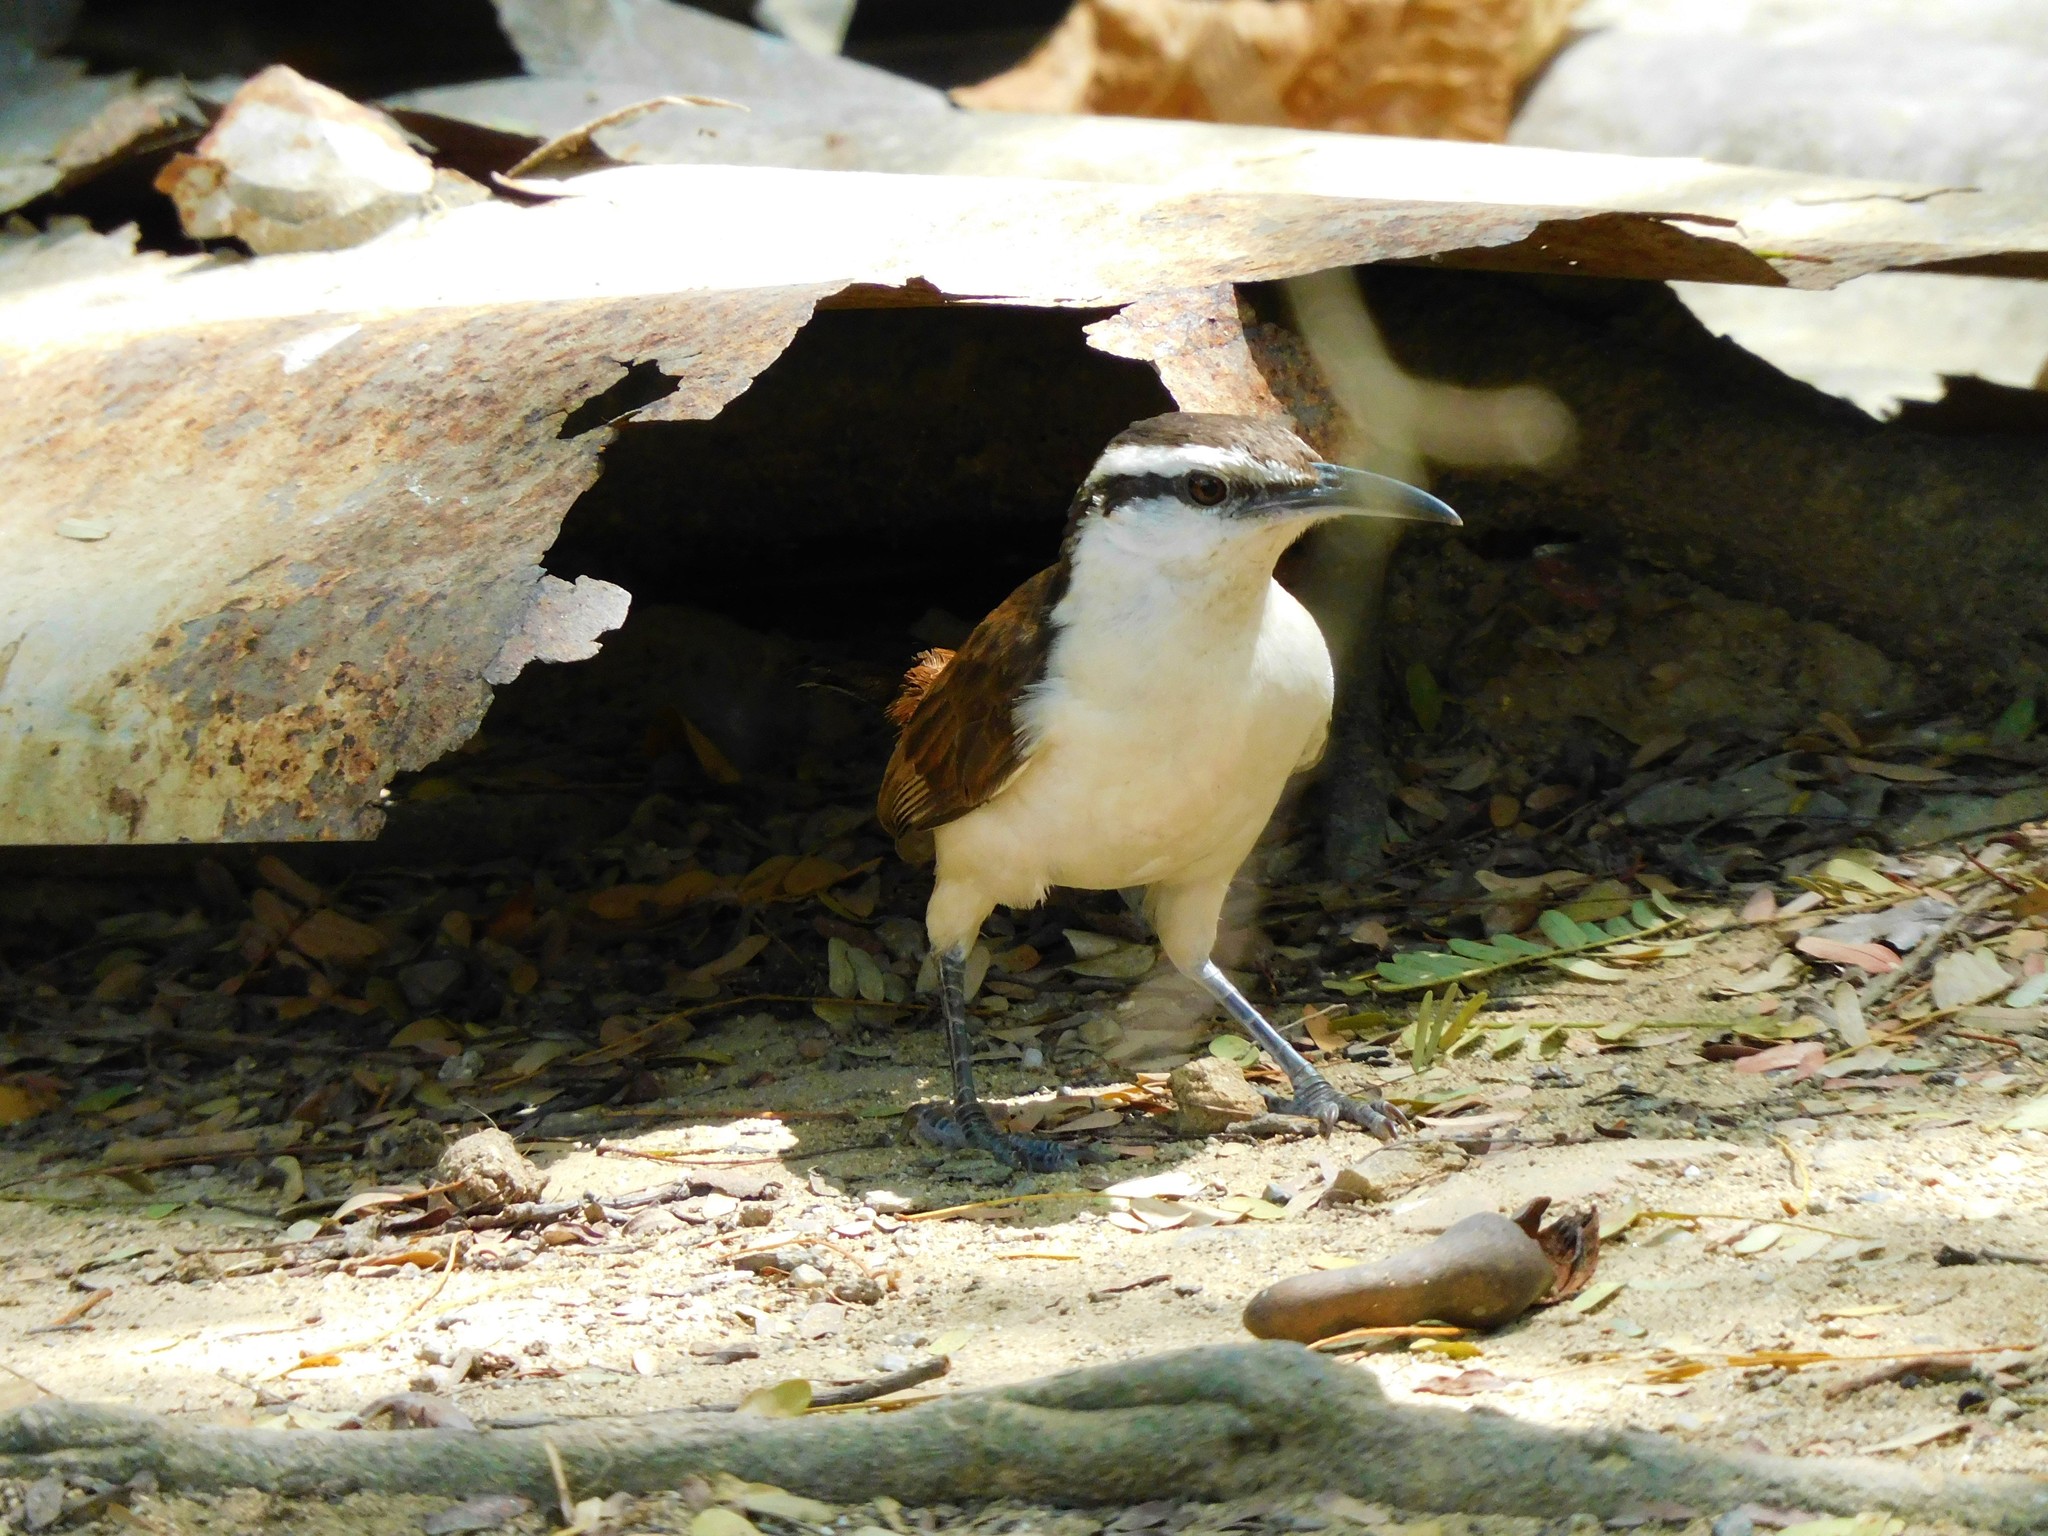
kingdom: Animalia
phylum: Chordata
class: Aves
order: Passeriformes
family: Troglodytidae
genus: Campylorhynchus
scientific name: Campylorhynchus griseus
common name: Bicolored wren
